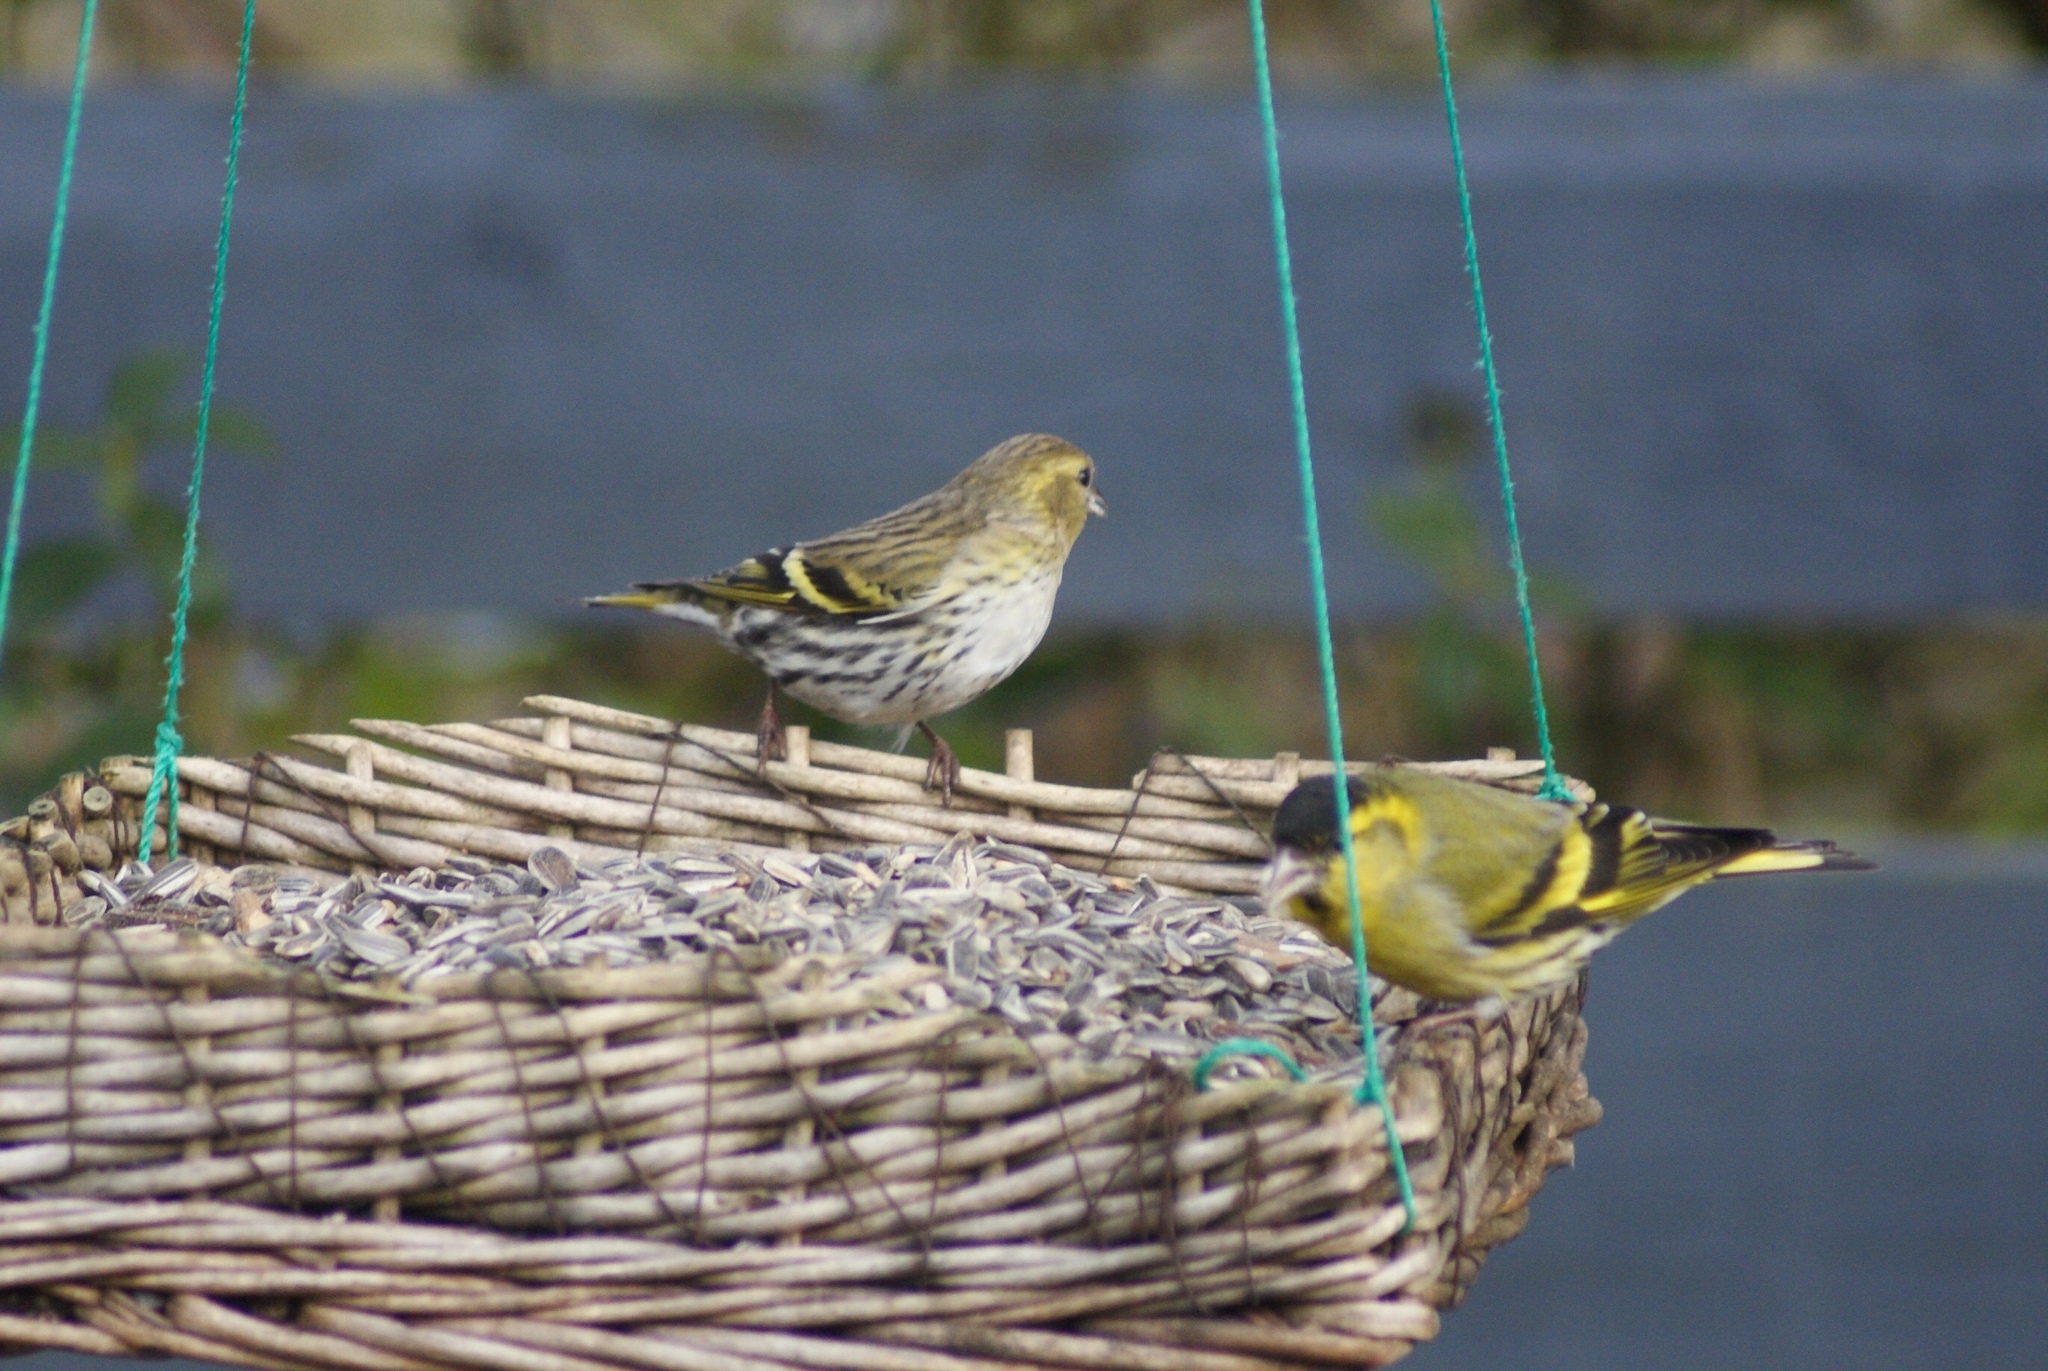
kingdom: Animalia
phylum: Chordata
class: Aves
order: Passeriformes
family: Fringillidae
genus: Spinus
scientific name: Spinus spinus
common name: Eurasian siskin
